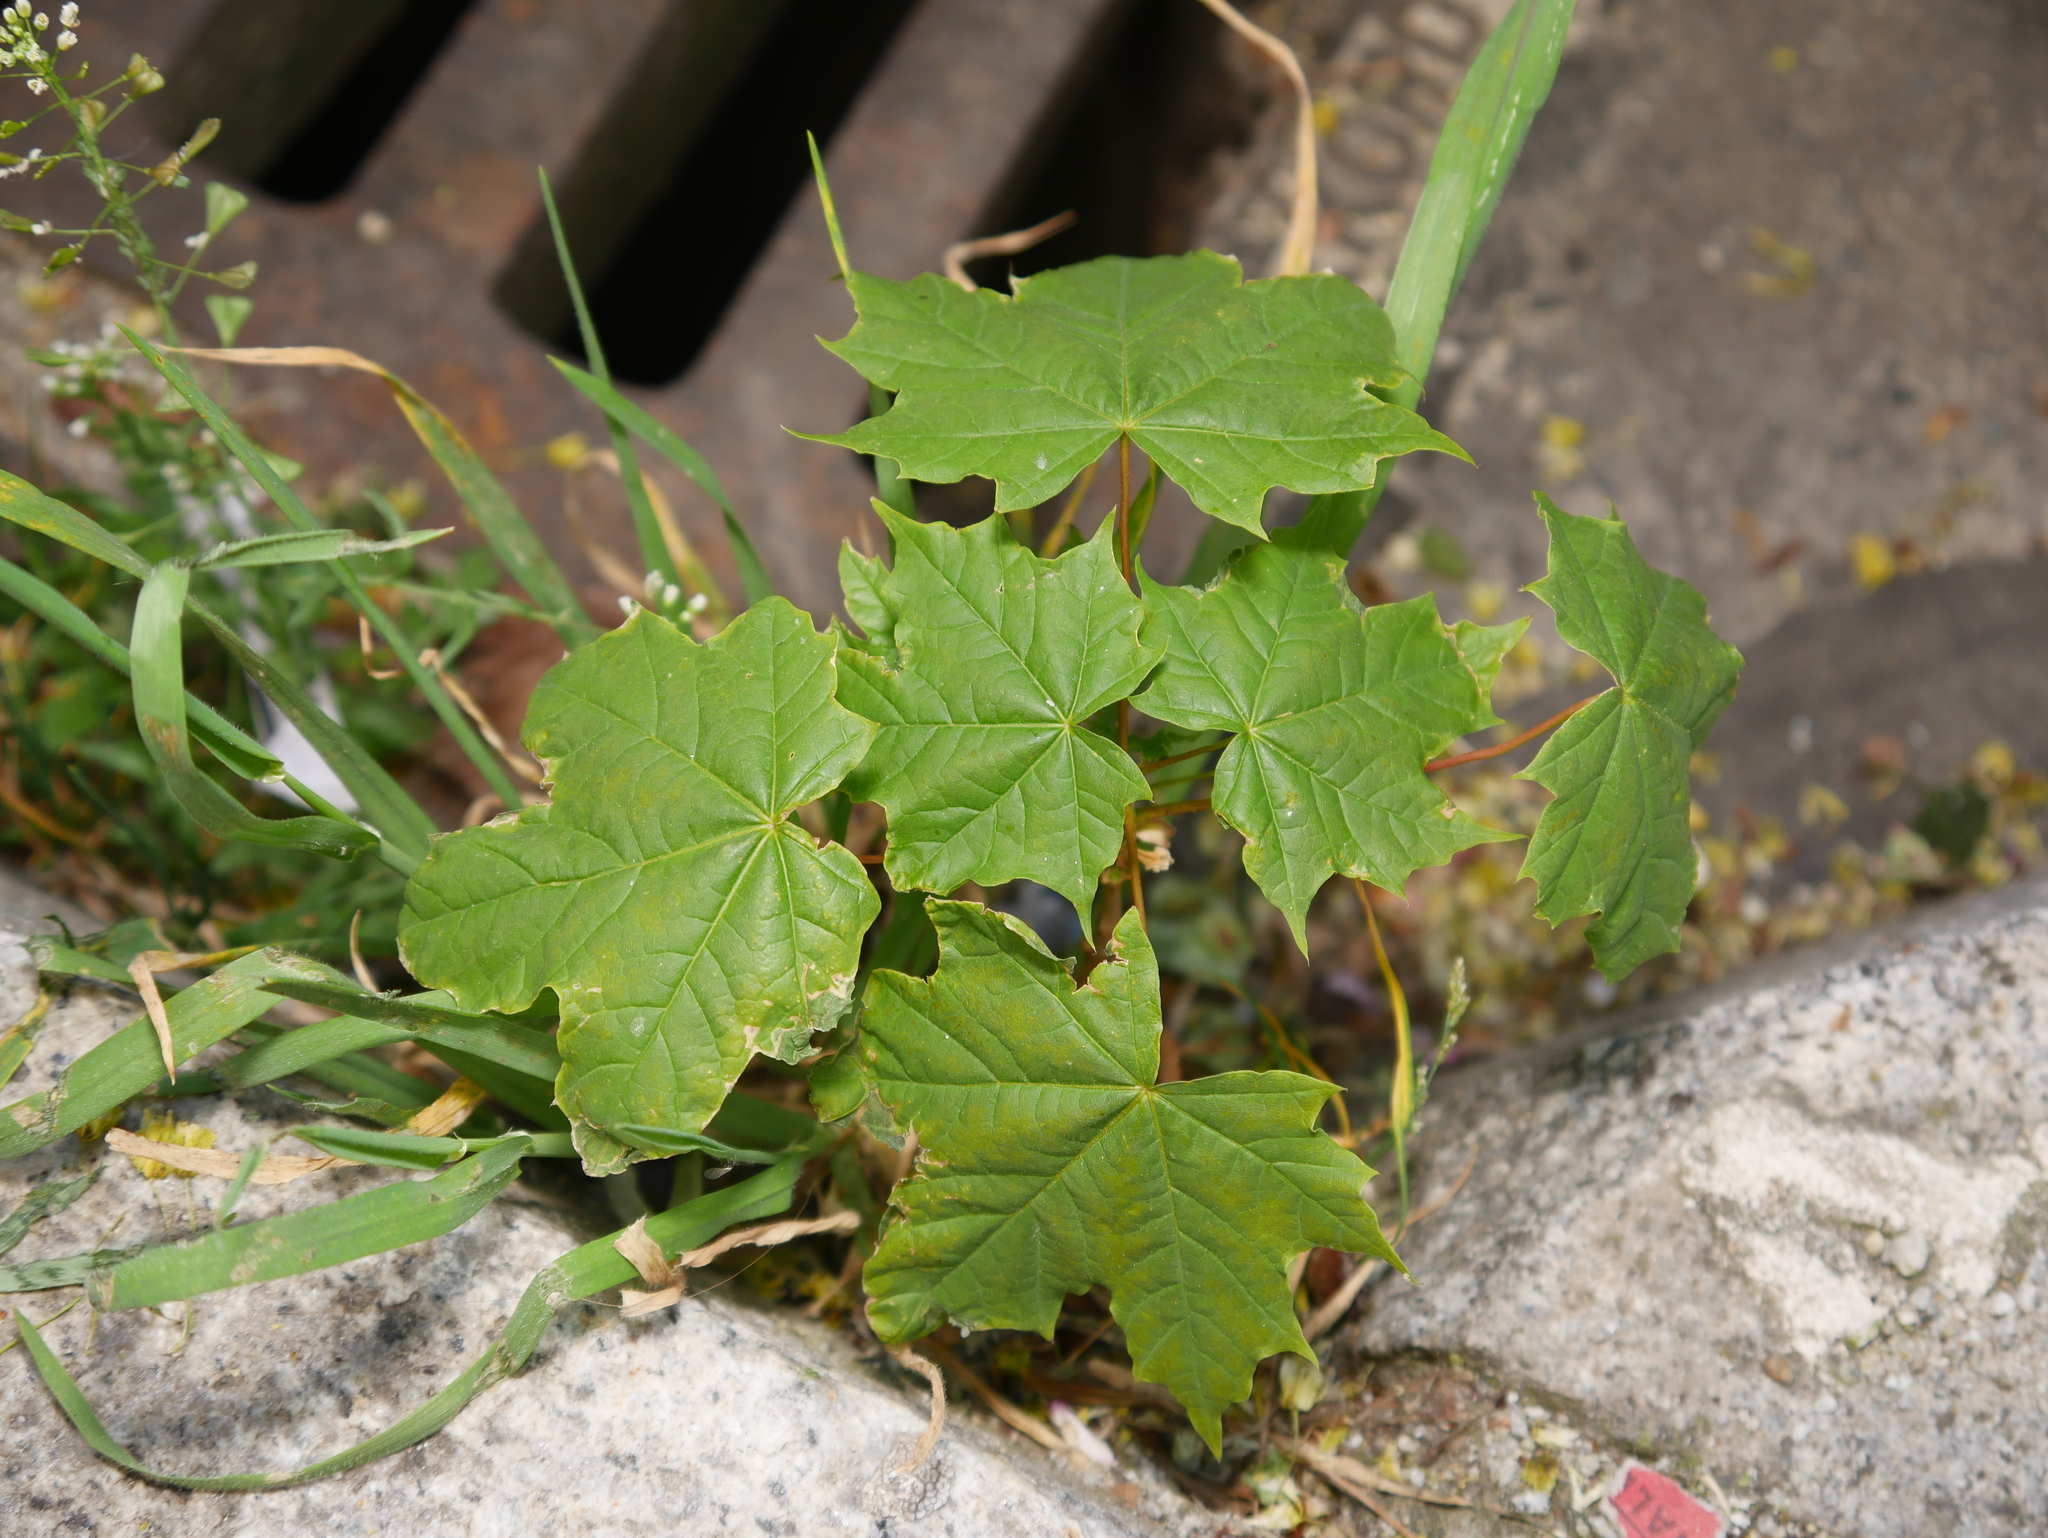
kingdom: Plantae
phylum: Tracheophyta
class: Magnoliopsida
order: Sapindales
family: Sapindaceae
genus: Acer
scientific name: Acer platanoides
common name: Norway maple
